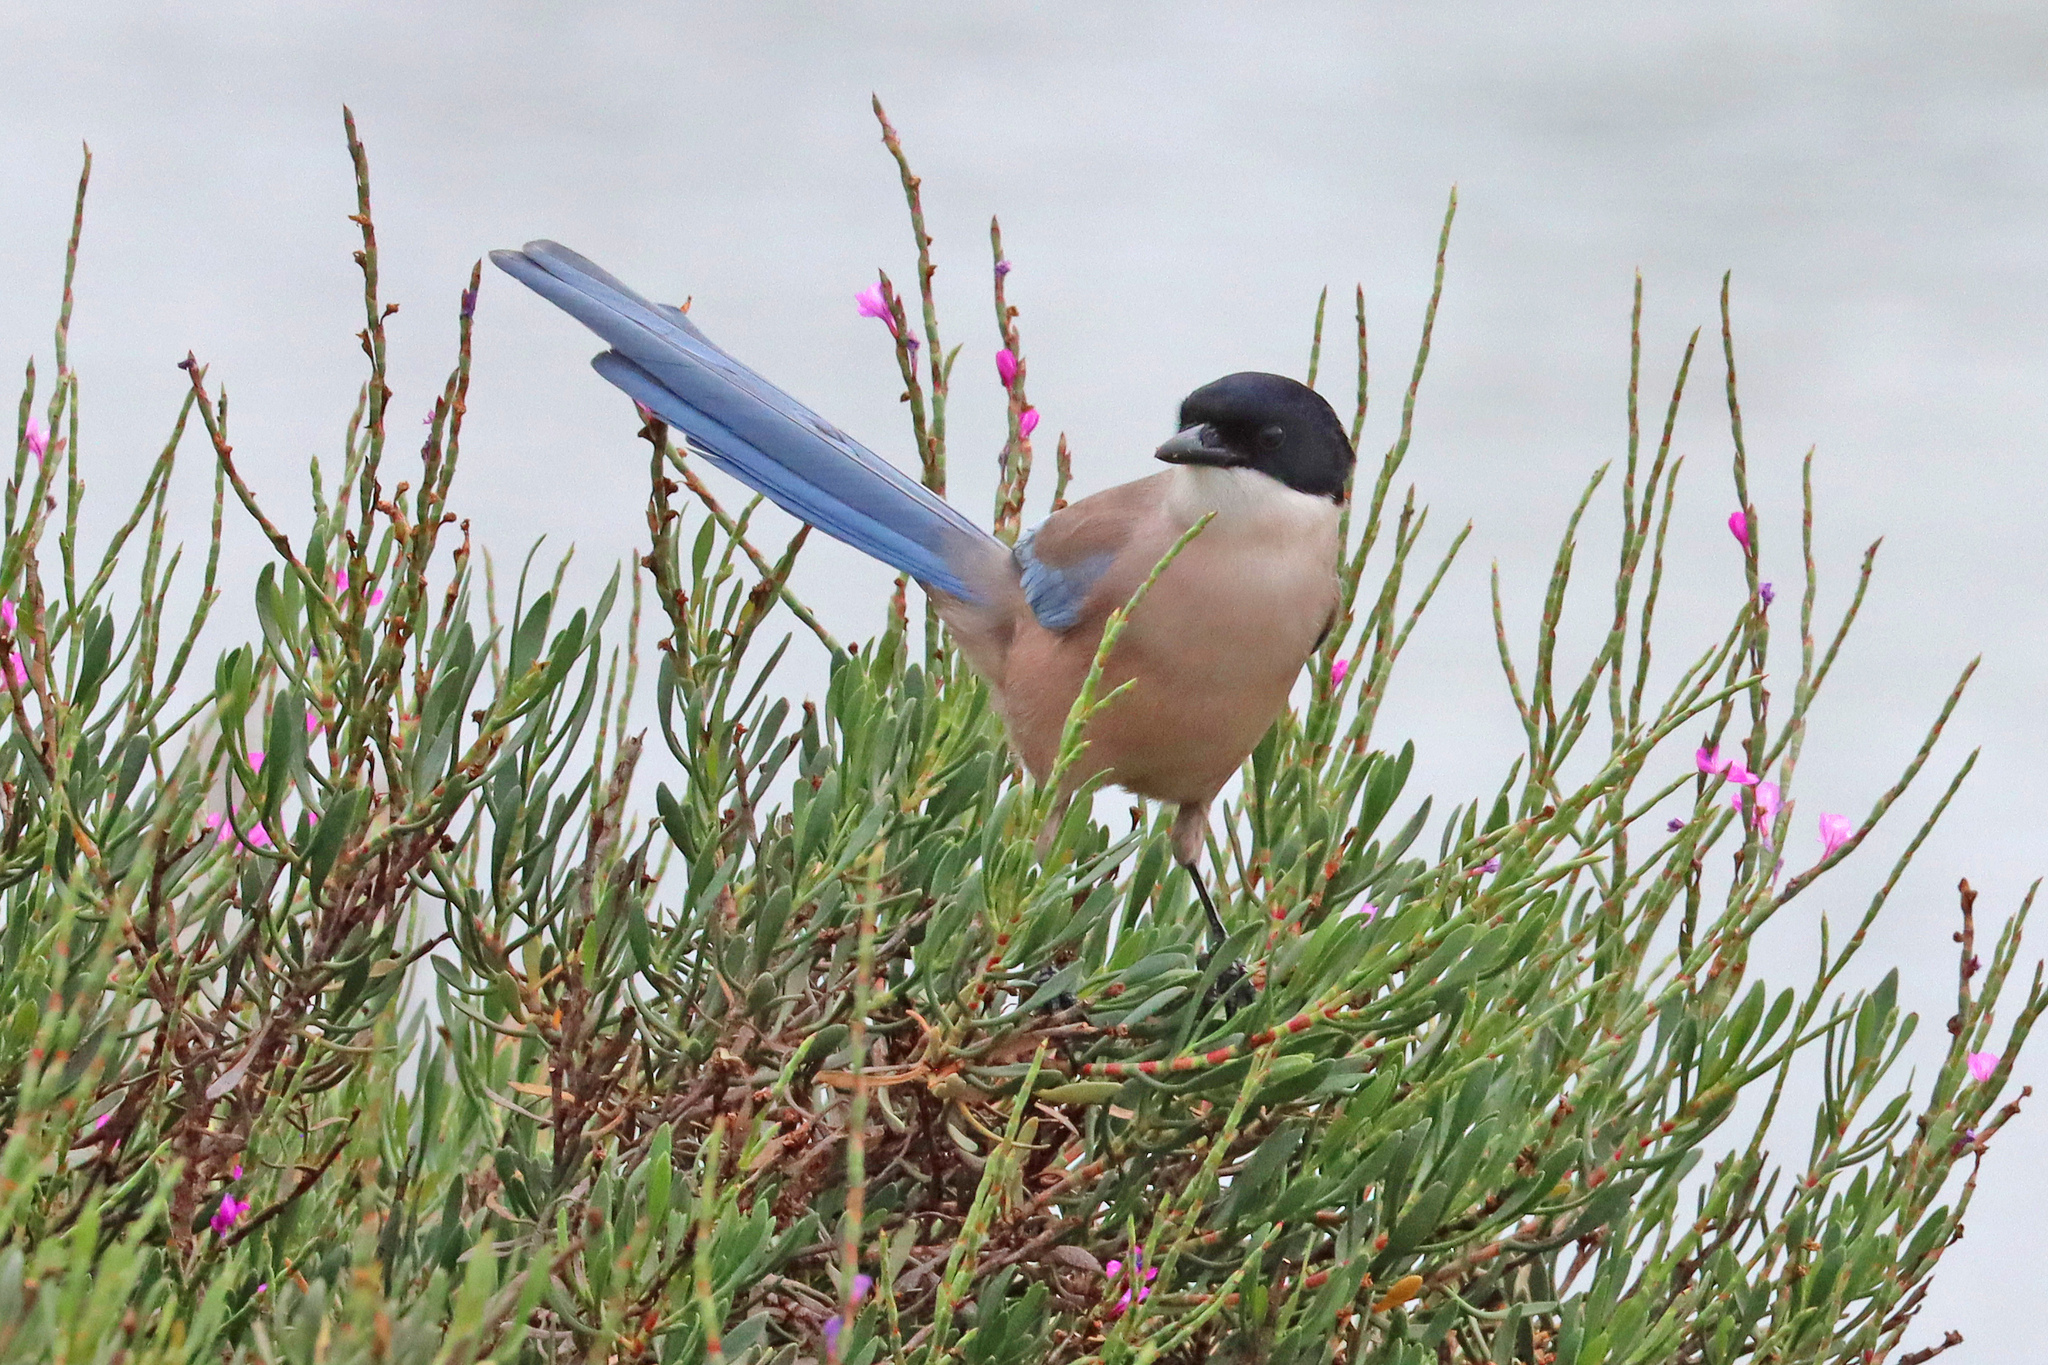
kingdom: Animalia
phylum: Chordata
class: Aves
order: Passeriformes
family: Corvidae
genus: Cyanopica
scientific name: Cyanopica cooki
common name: Iberian magpie
